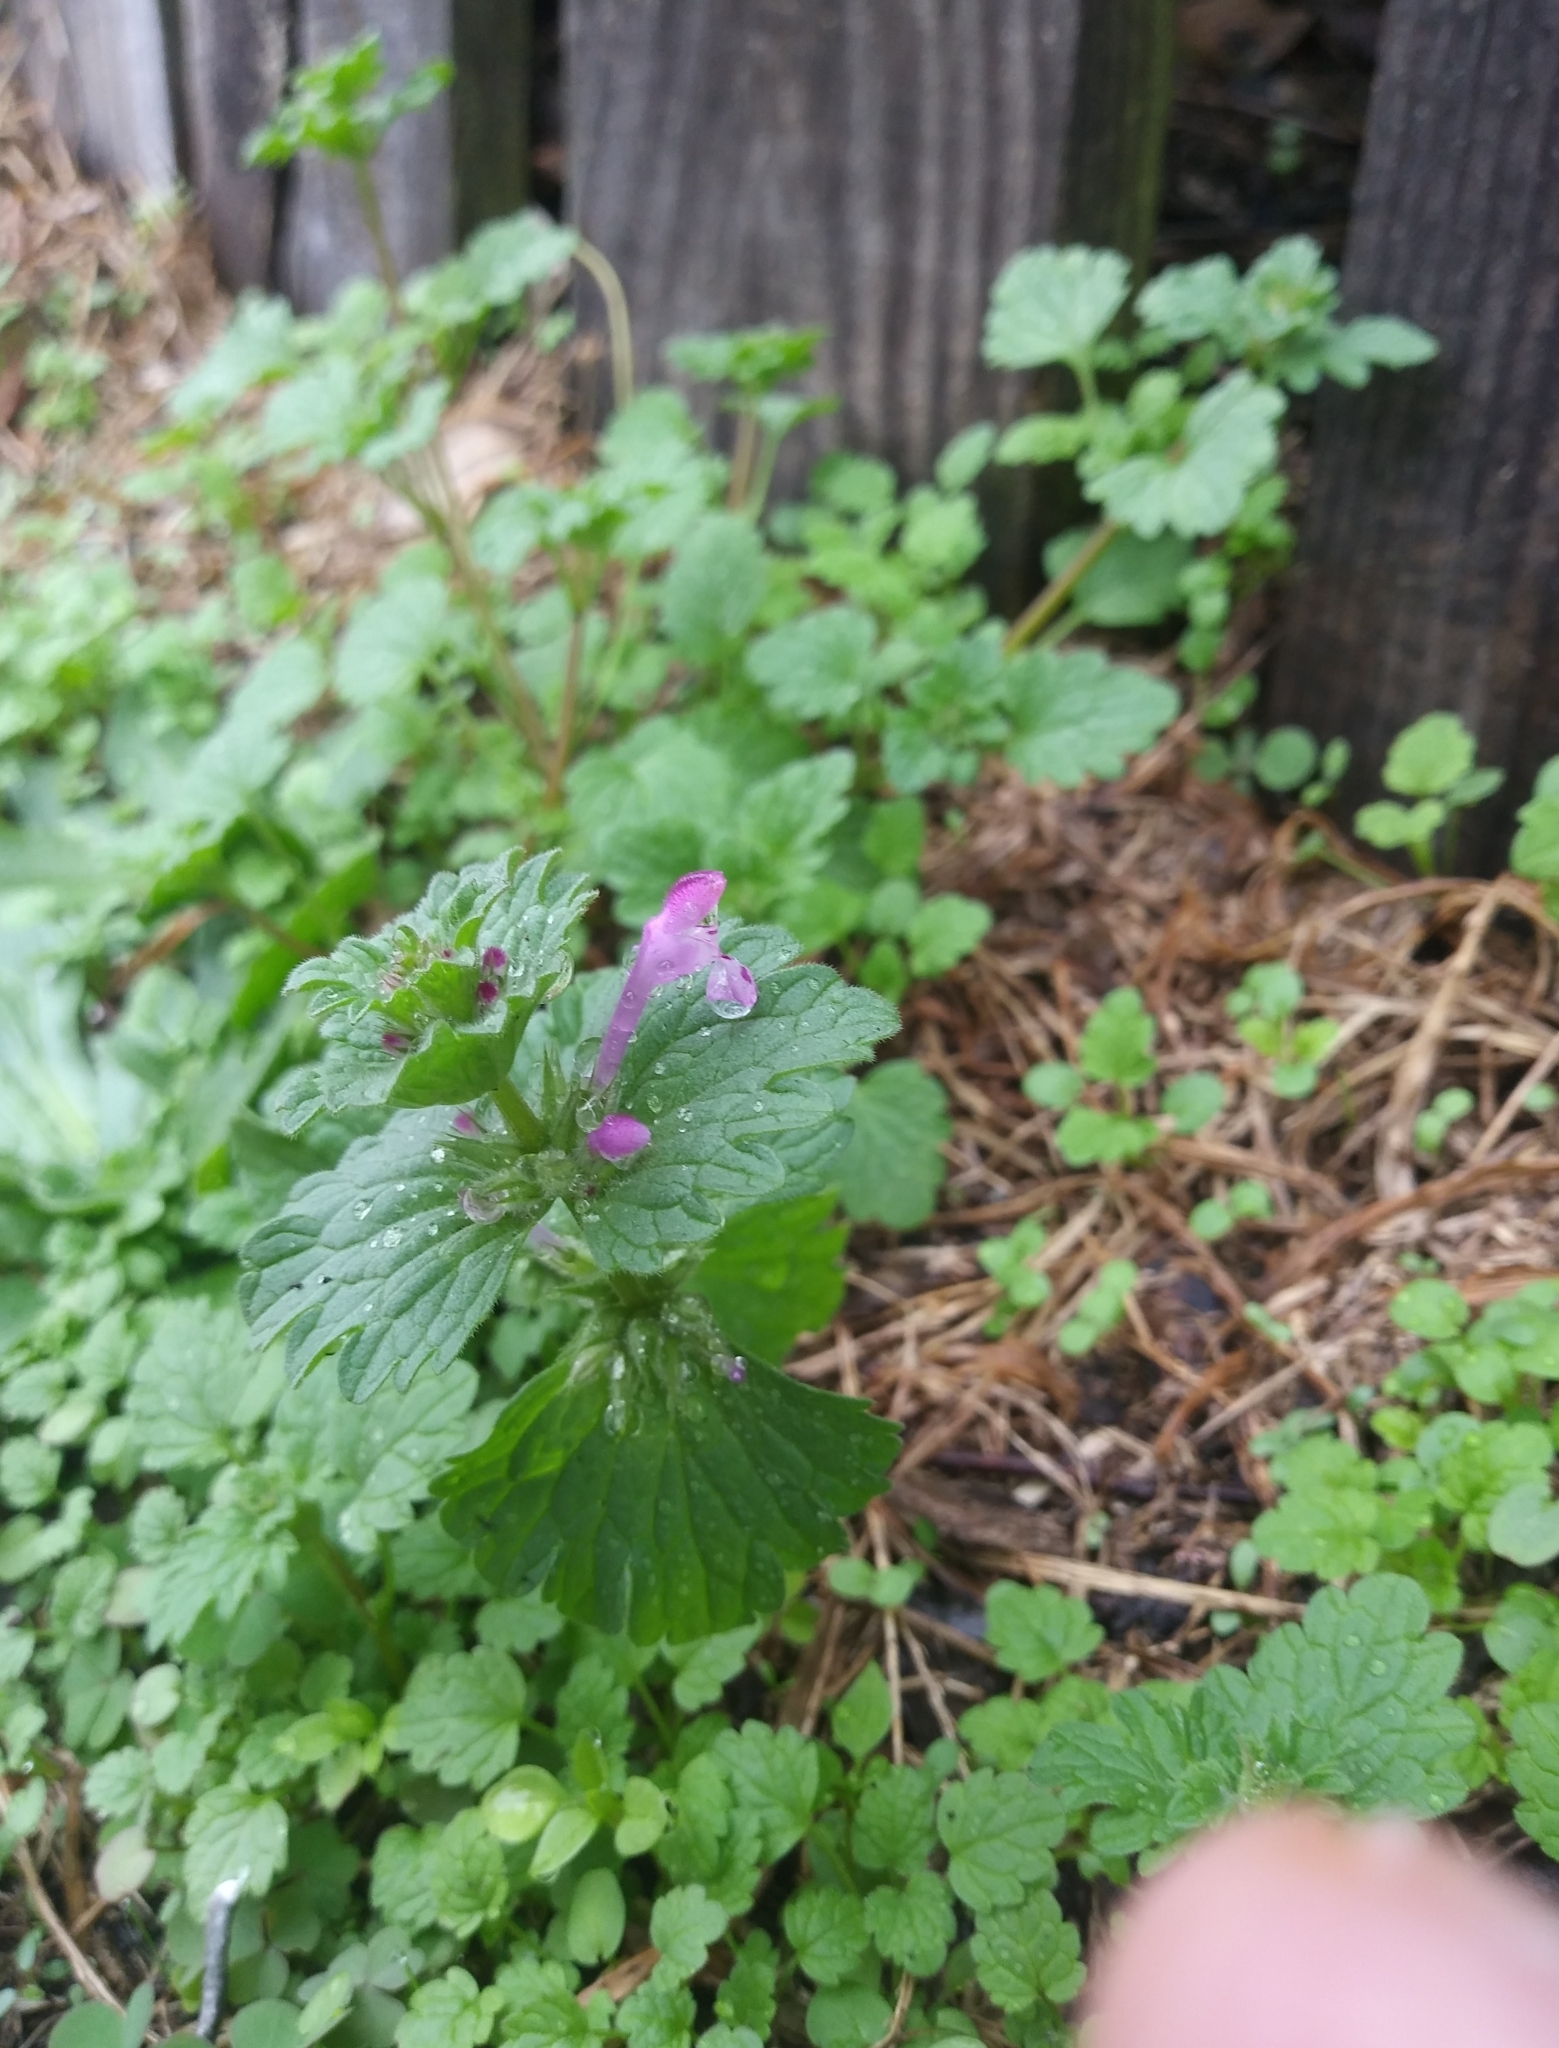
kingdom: Plantae
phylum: Tracheophyta
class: Magnoliopsida
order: Lamiales
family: Lamiaceae
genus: Lamium
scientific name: Lamium amplexicaule
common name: Henbit dead-nettle
